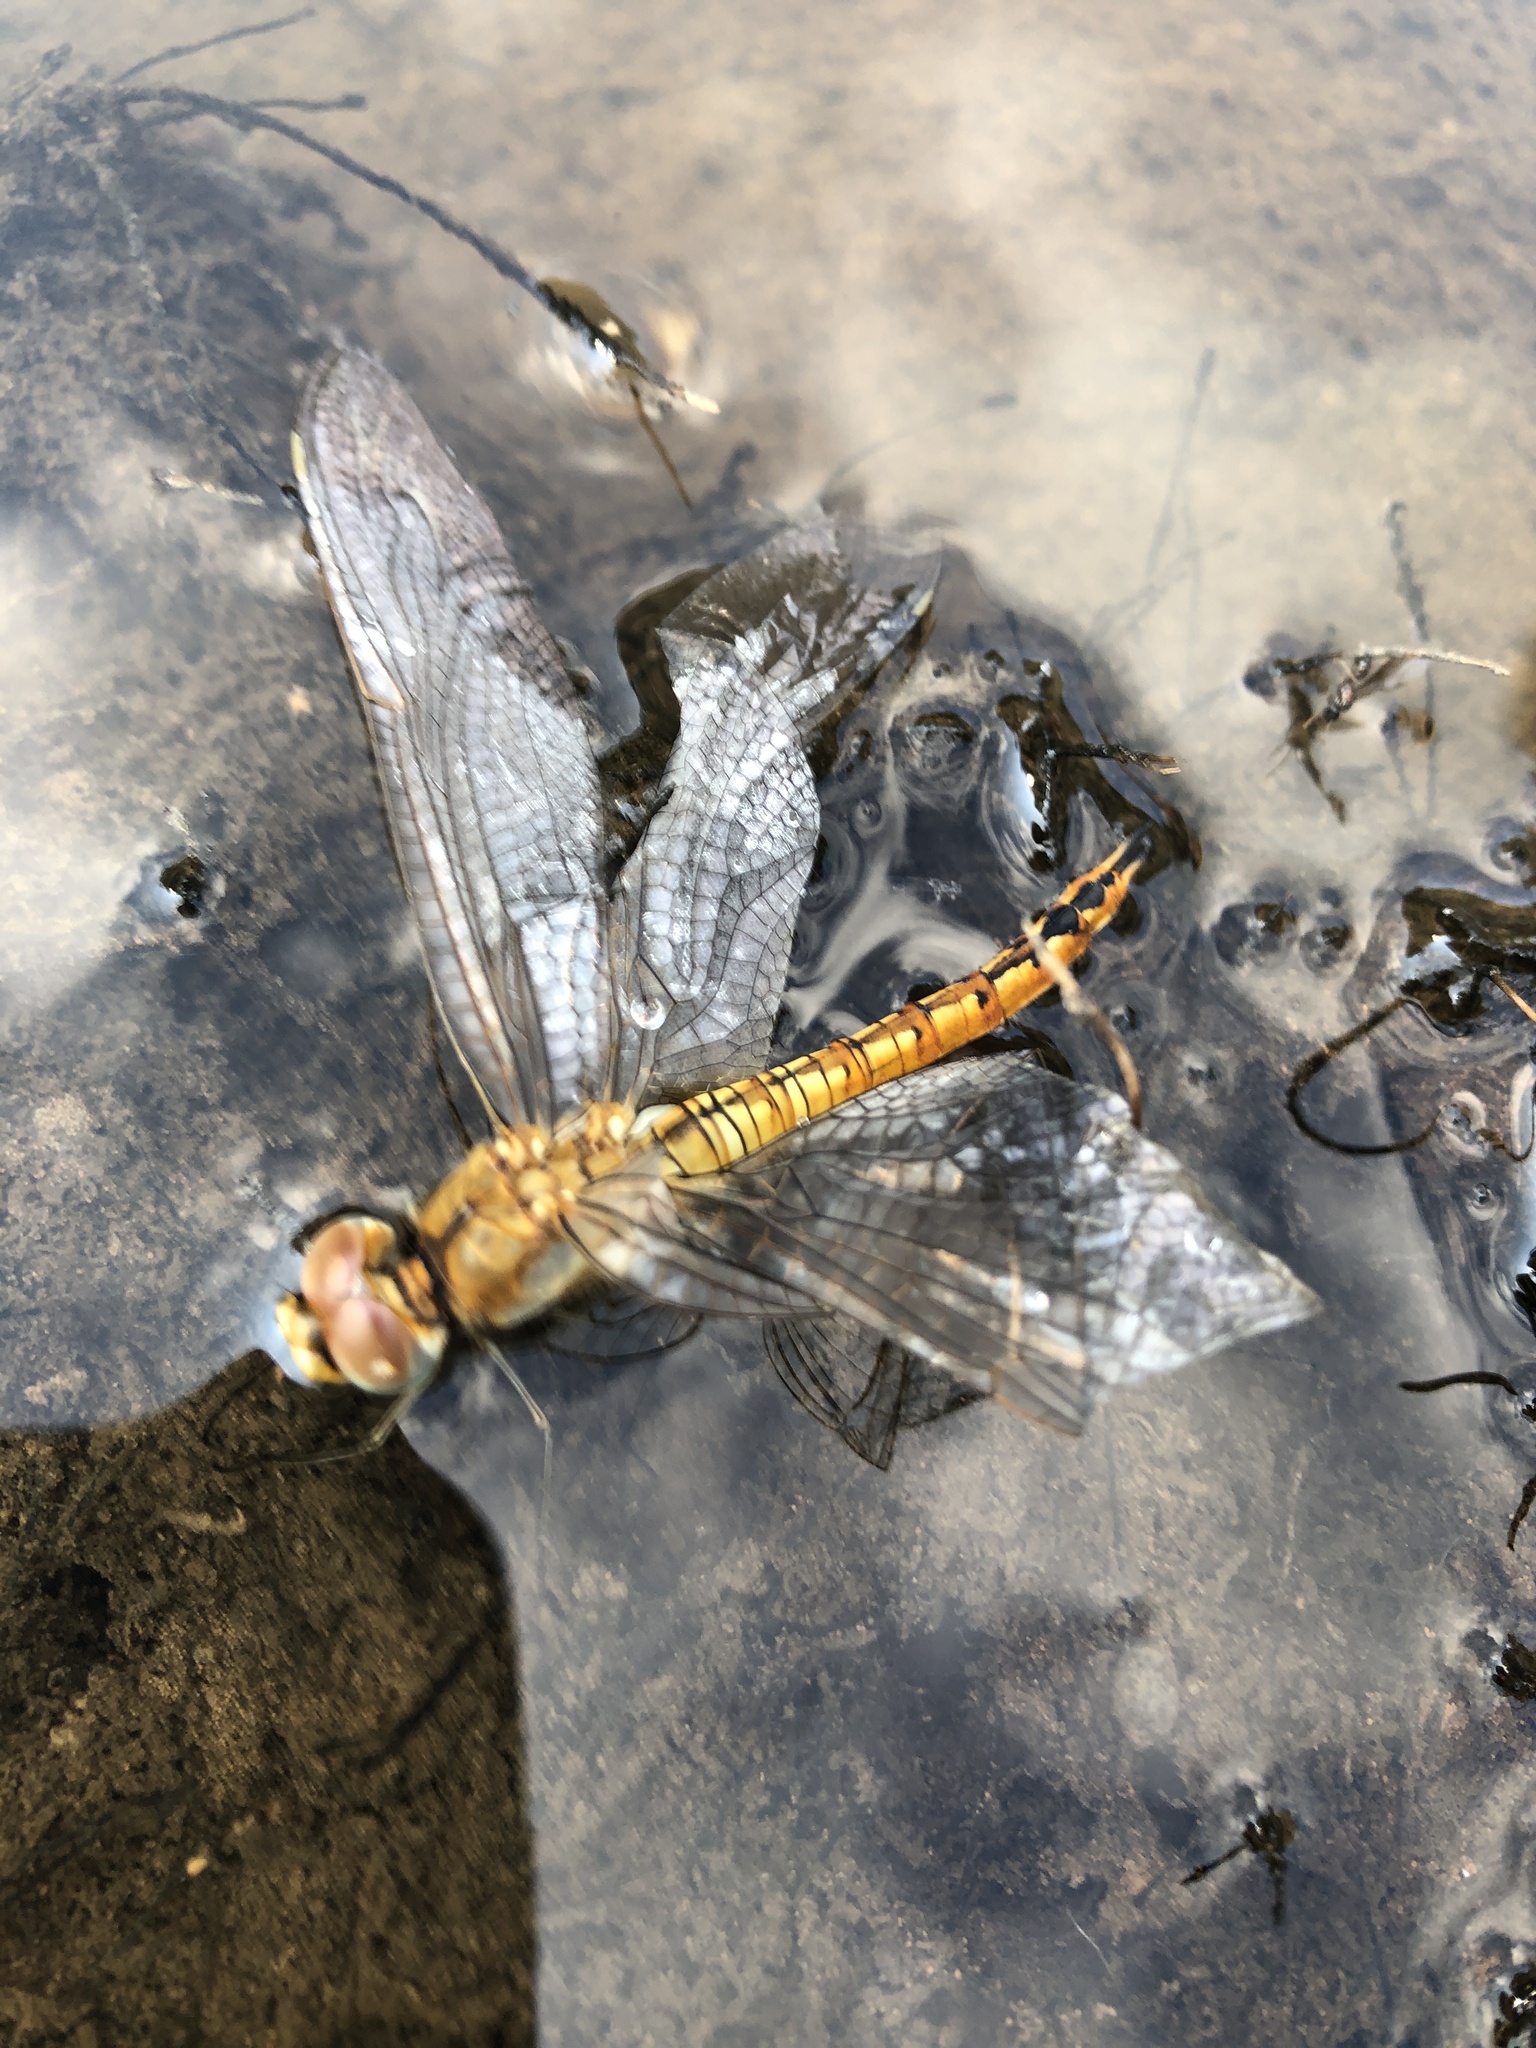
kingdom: Animalia
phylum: Arthropoda
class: Insecta
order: Odonata
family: Libellulidae
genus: Pantala
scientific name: Pantala flavescens
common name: Wandering glider
